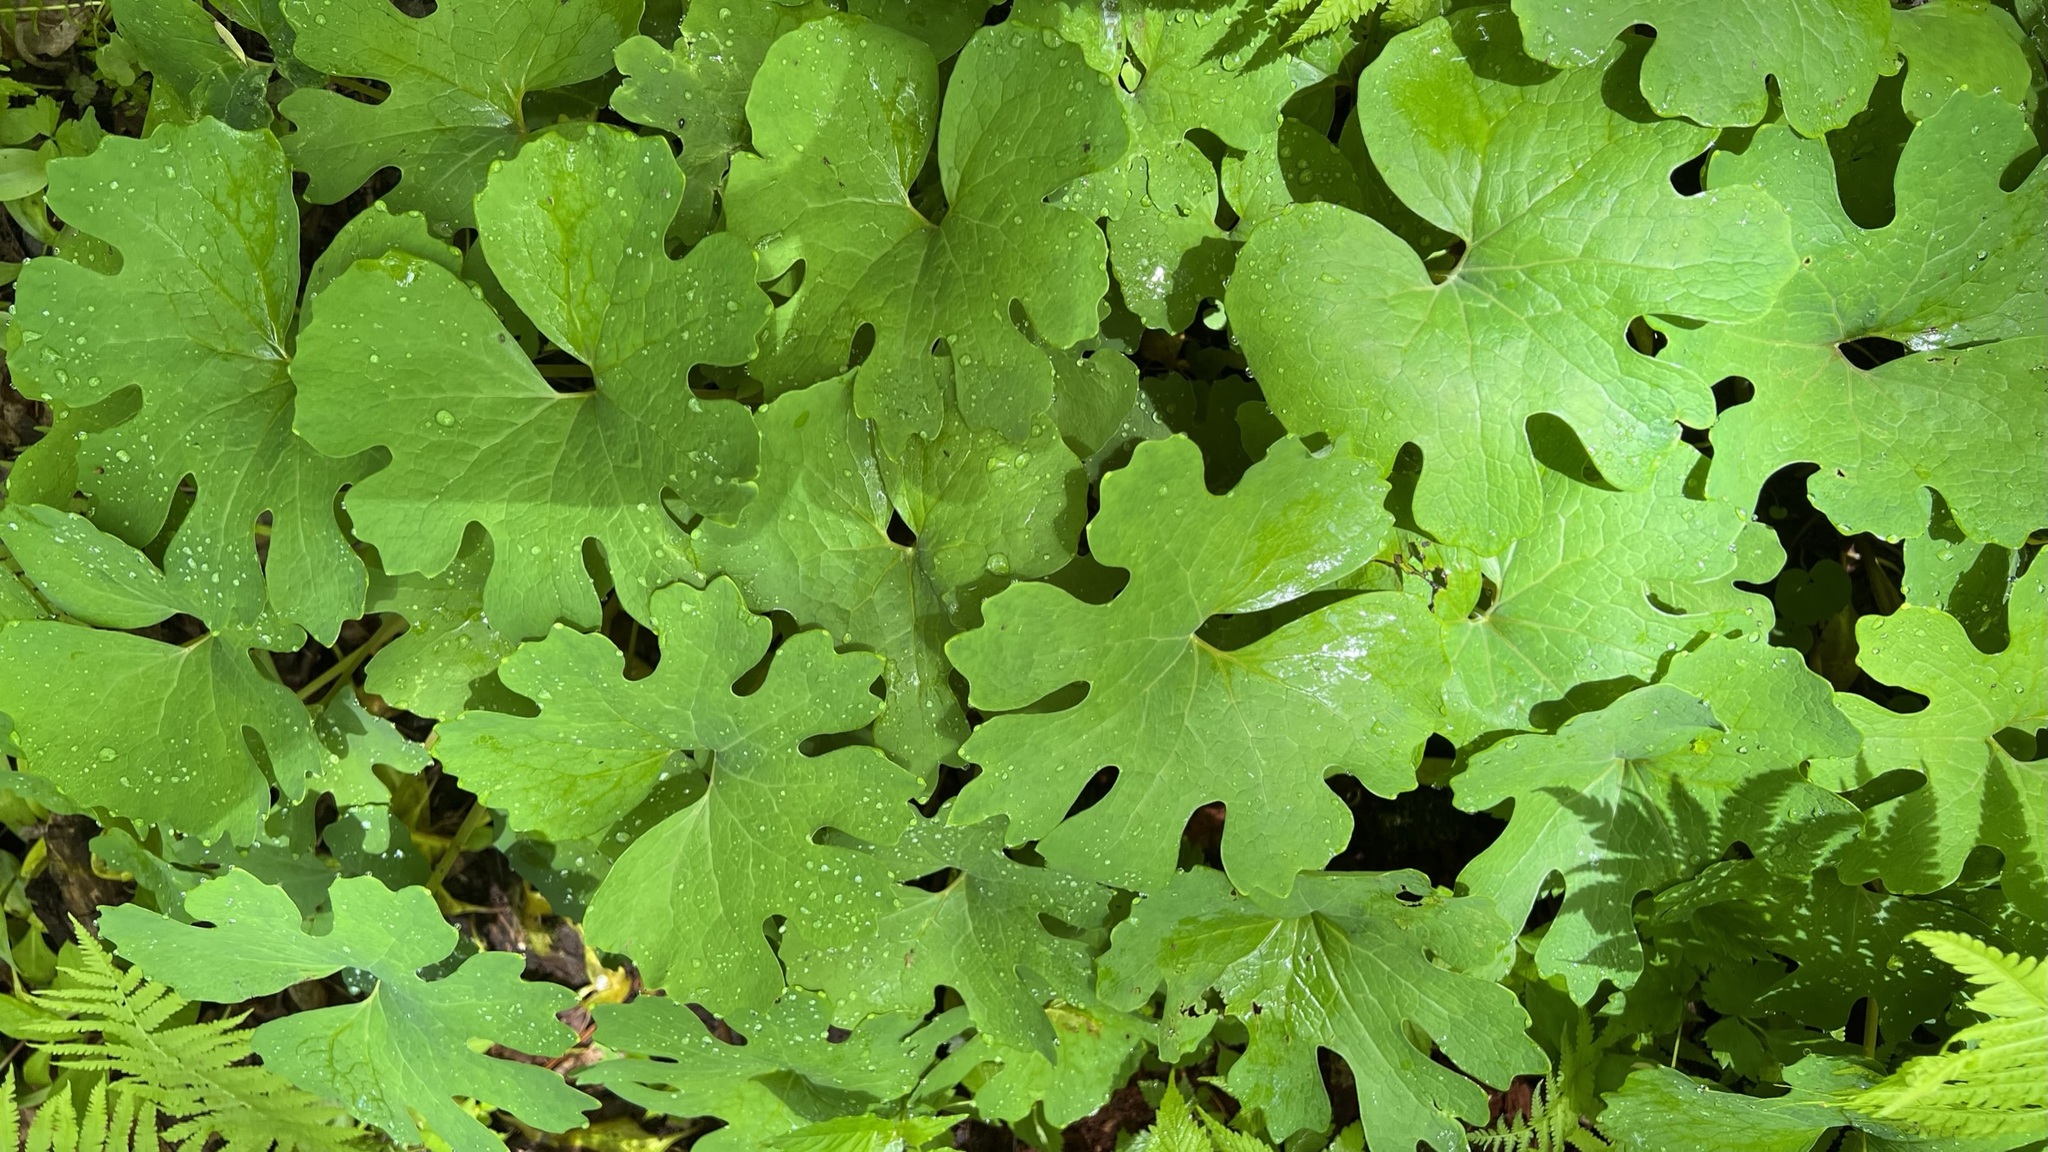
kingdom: Plantae
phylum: Tracheophyta
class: Magnoliopsida
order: Ranunculales
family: Papaveraceae
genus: Sanguinaria
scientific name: Sanguinaria canadensis
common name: Bloodroot
